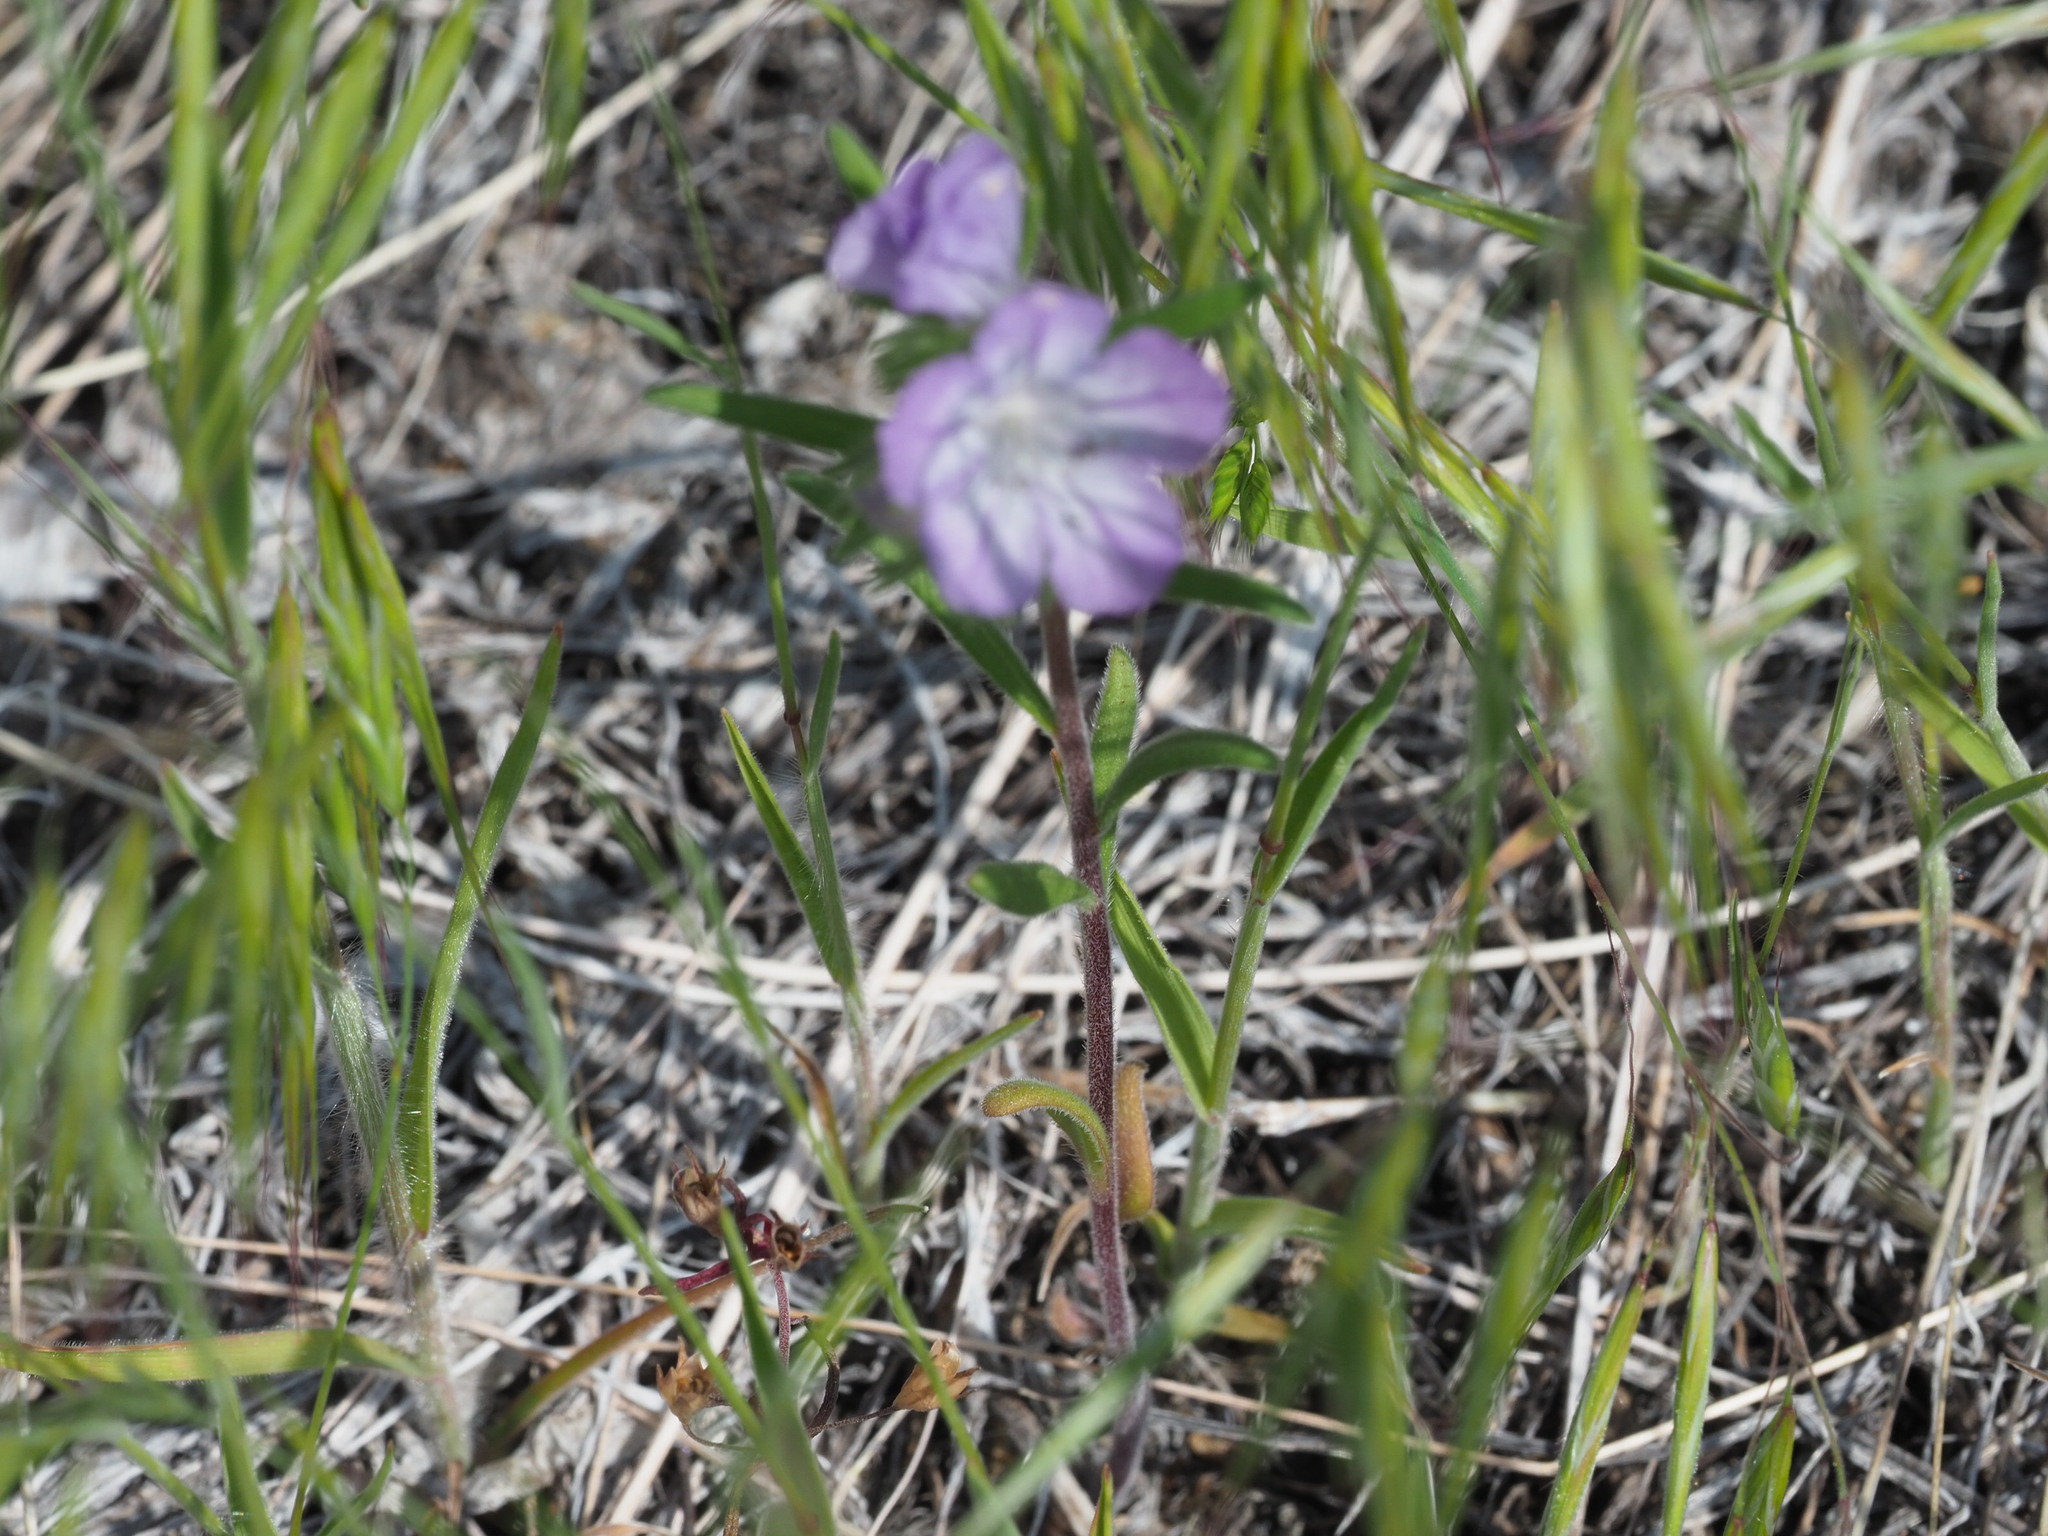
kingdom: Plantae
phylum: Tracheophyta
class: Magnoliopsida
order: Boraginales
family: Hydrophyllaceae
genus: Phacelia
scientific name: Phacelia linearis
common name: Linear-leaved phacelia
